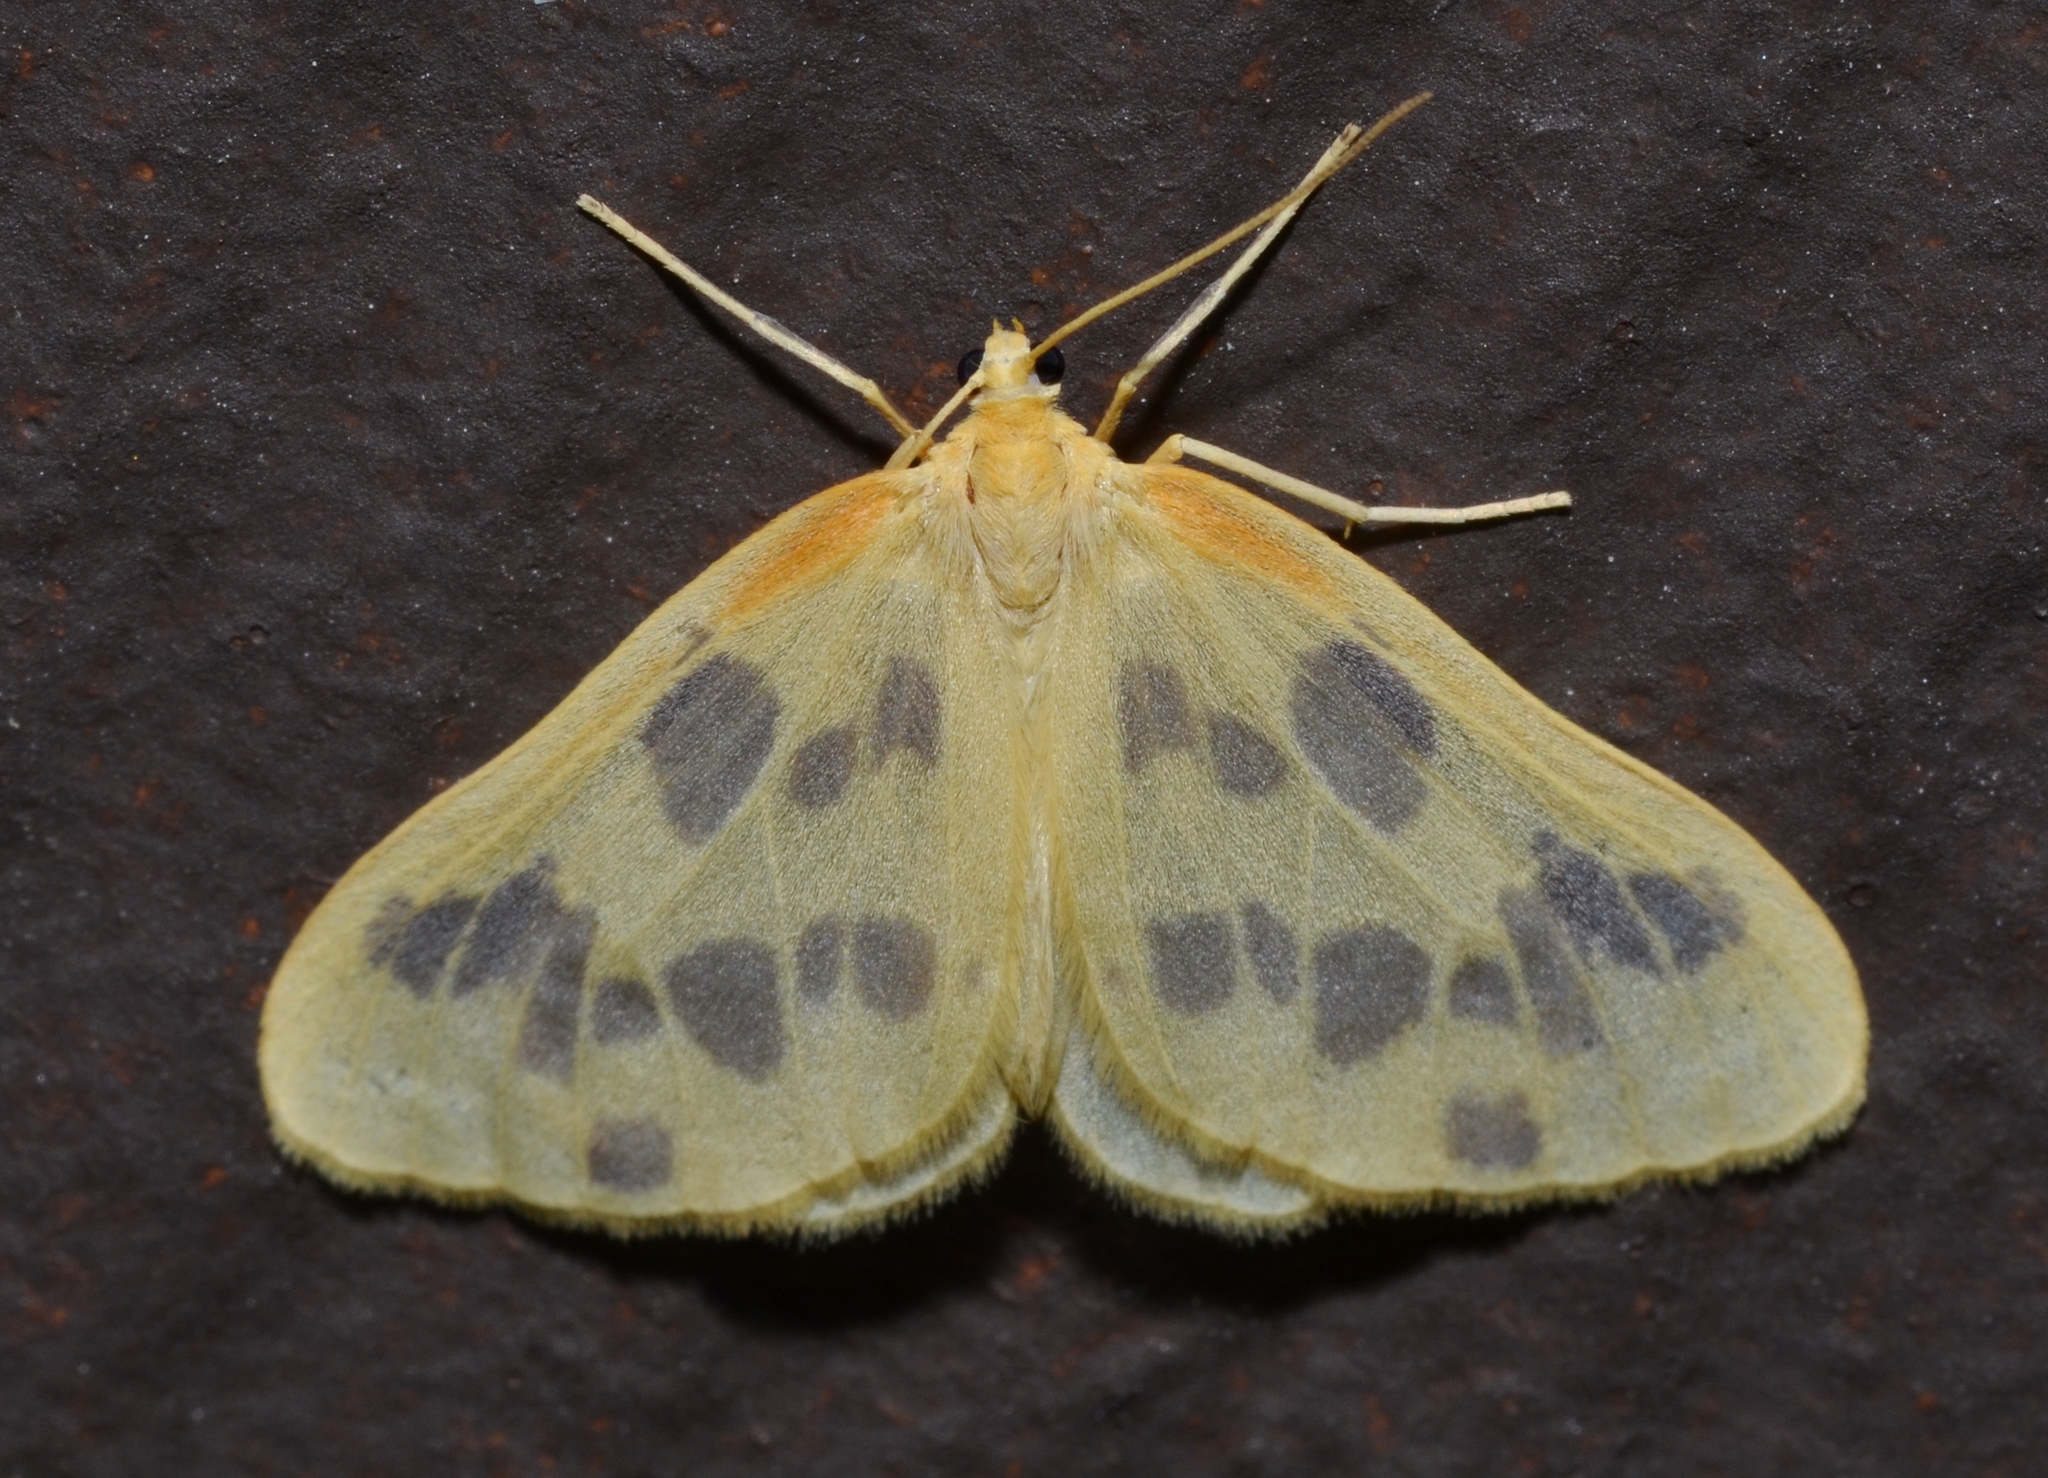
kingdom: Animalia
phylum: Arthropoda
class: Insecta
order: Lepidoptera
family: Geometridae
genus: Eubaphe
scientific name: Eubaphe mendica
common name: Beggar
